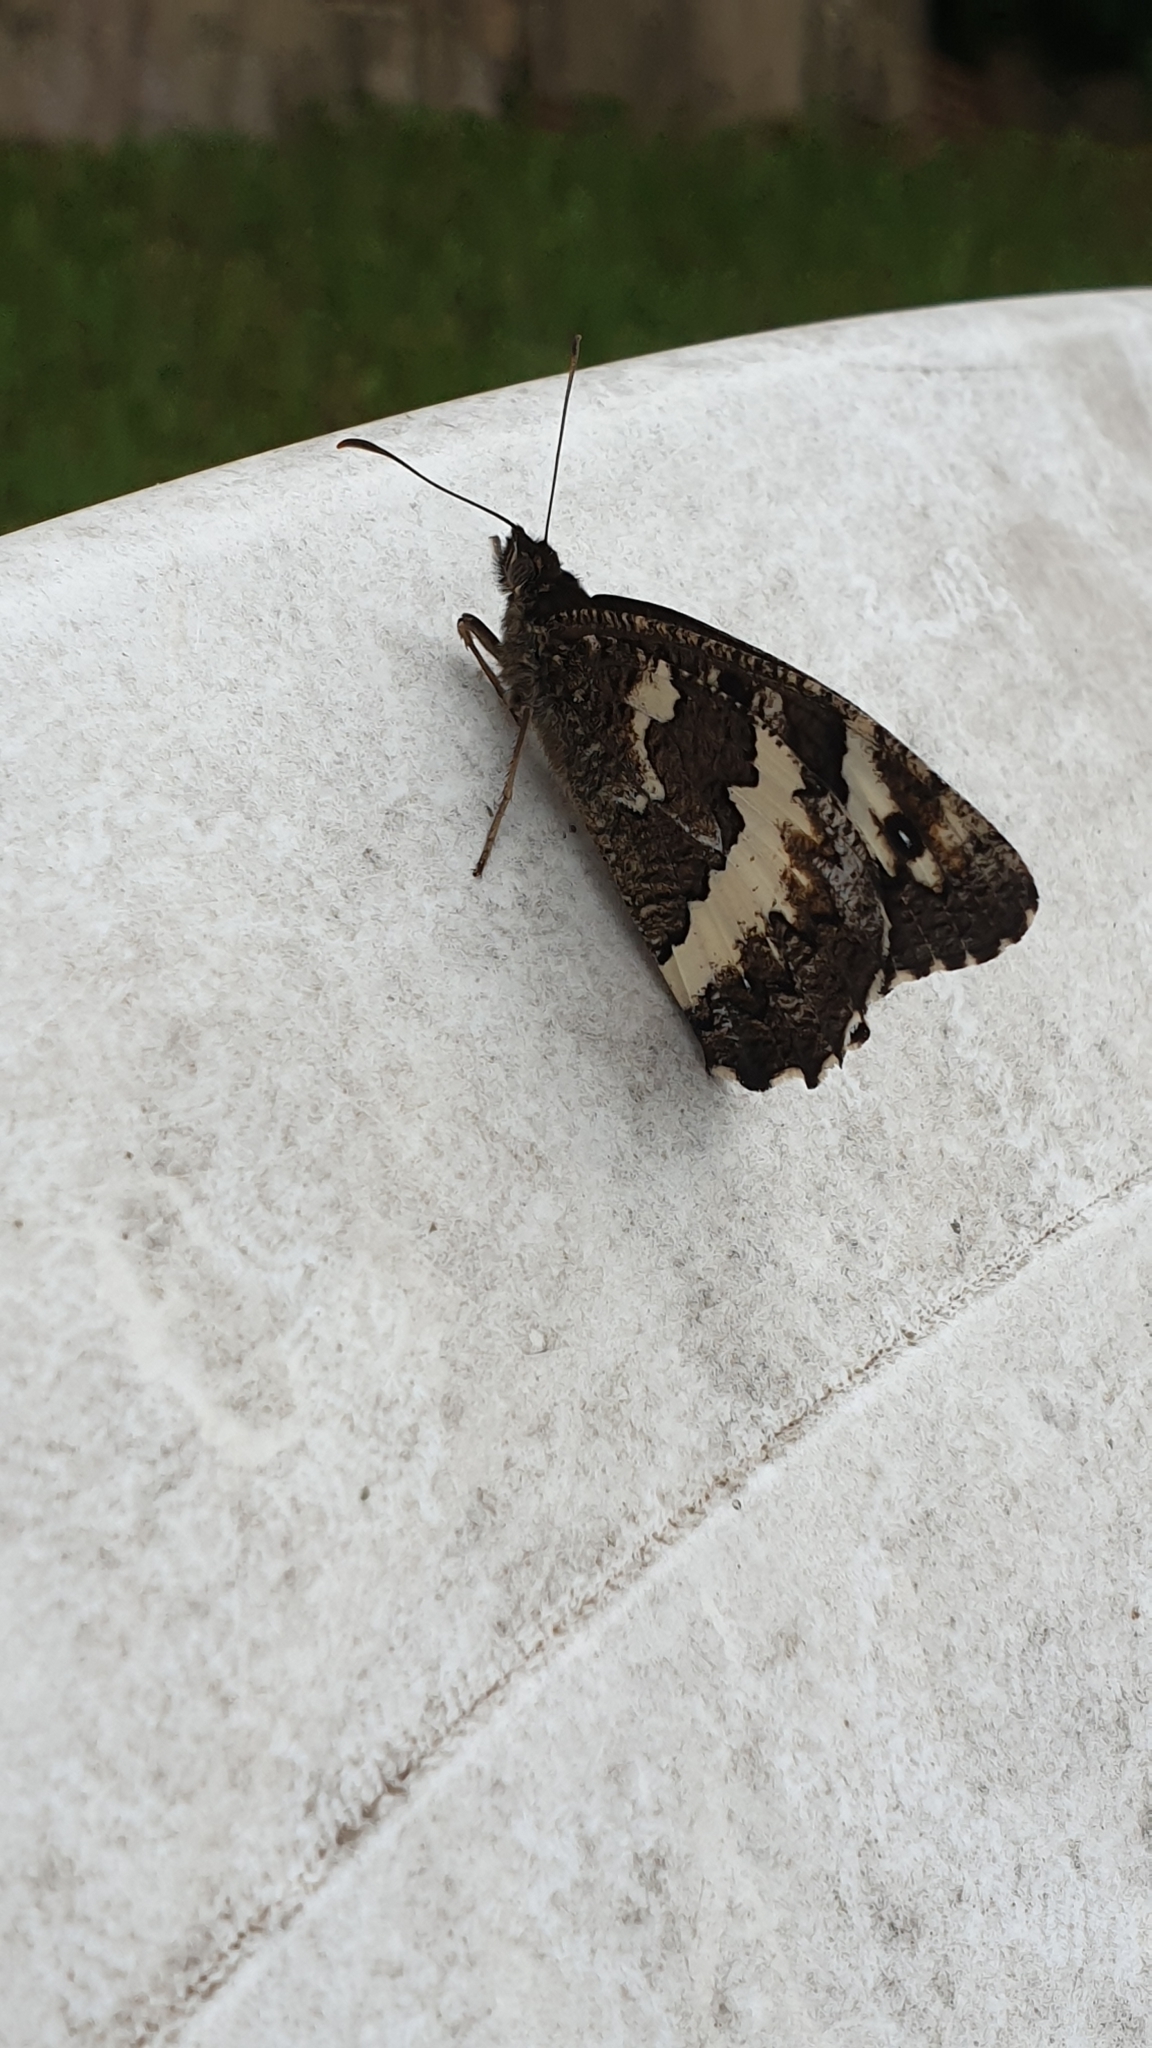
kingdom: Animalia
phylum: Arthropoda
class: Insecta
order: Lepidoptera
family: Lycaenidae
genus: Loweia
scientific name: Loweia tityrus
